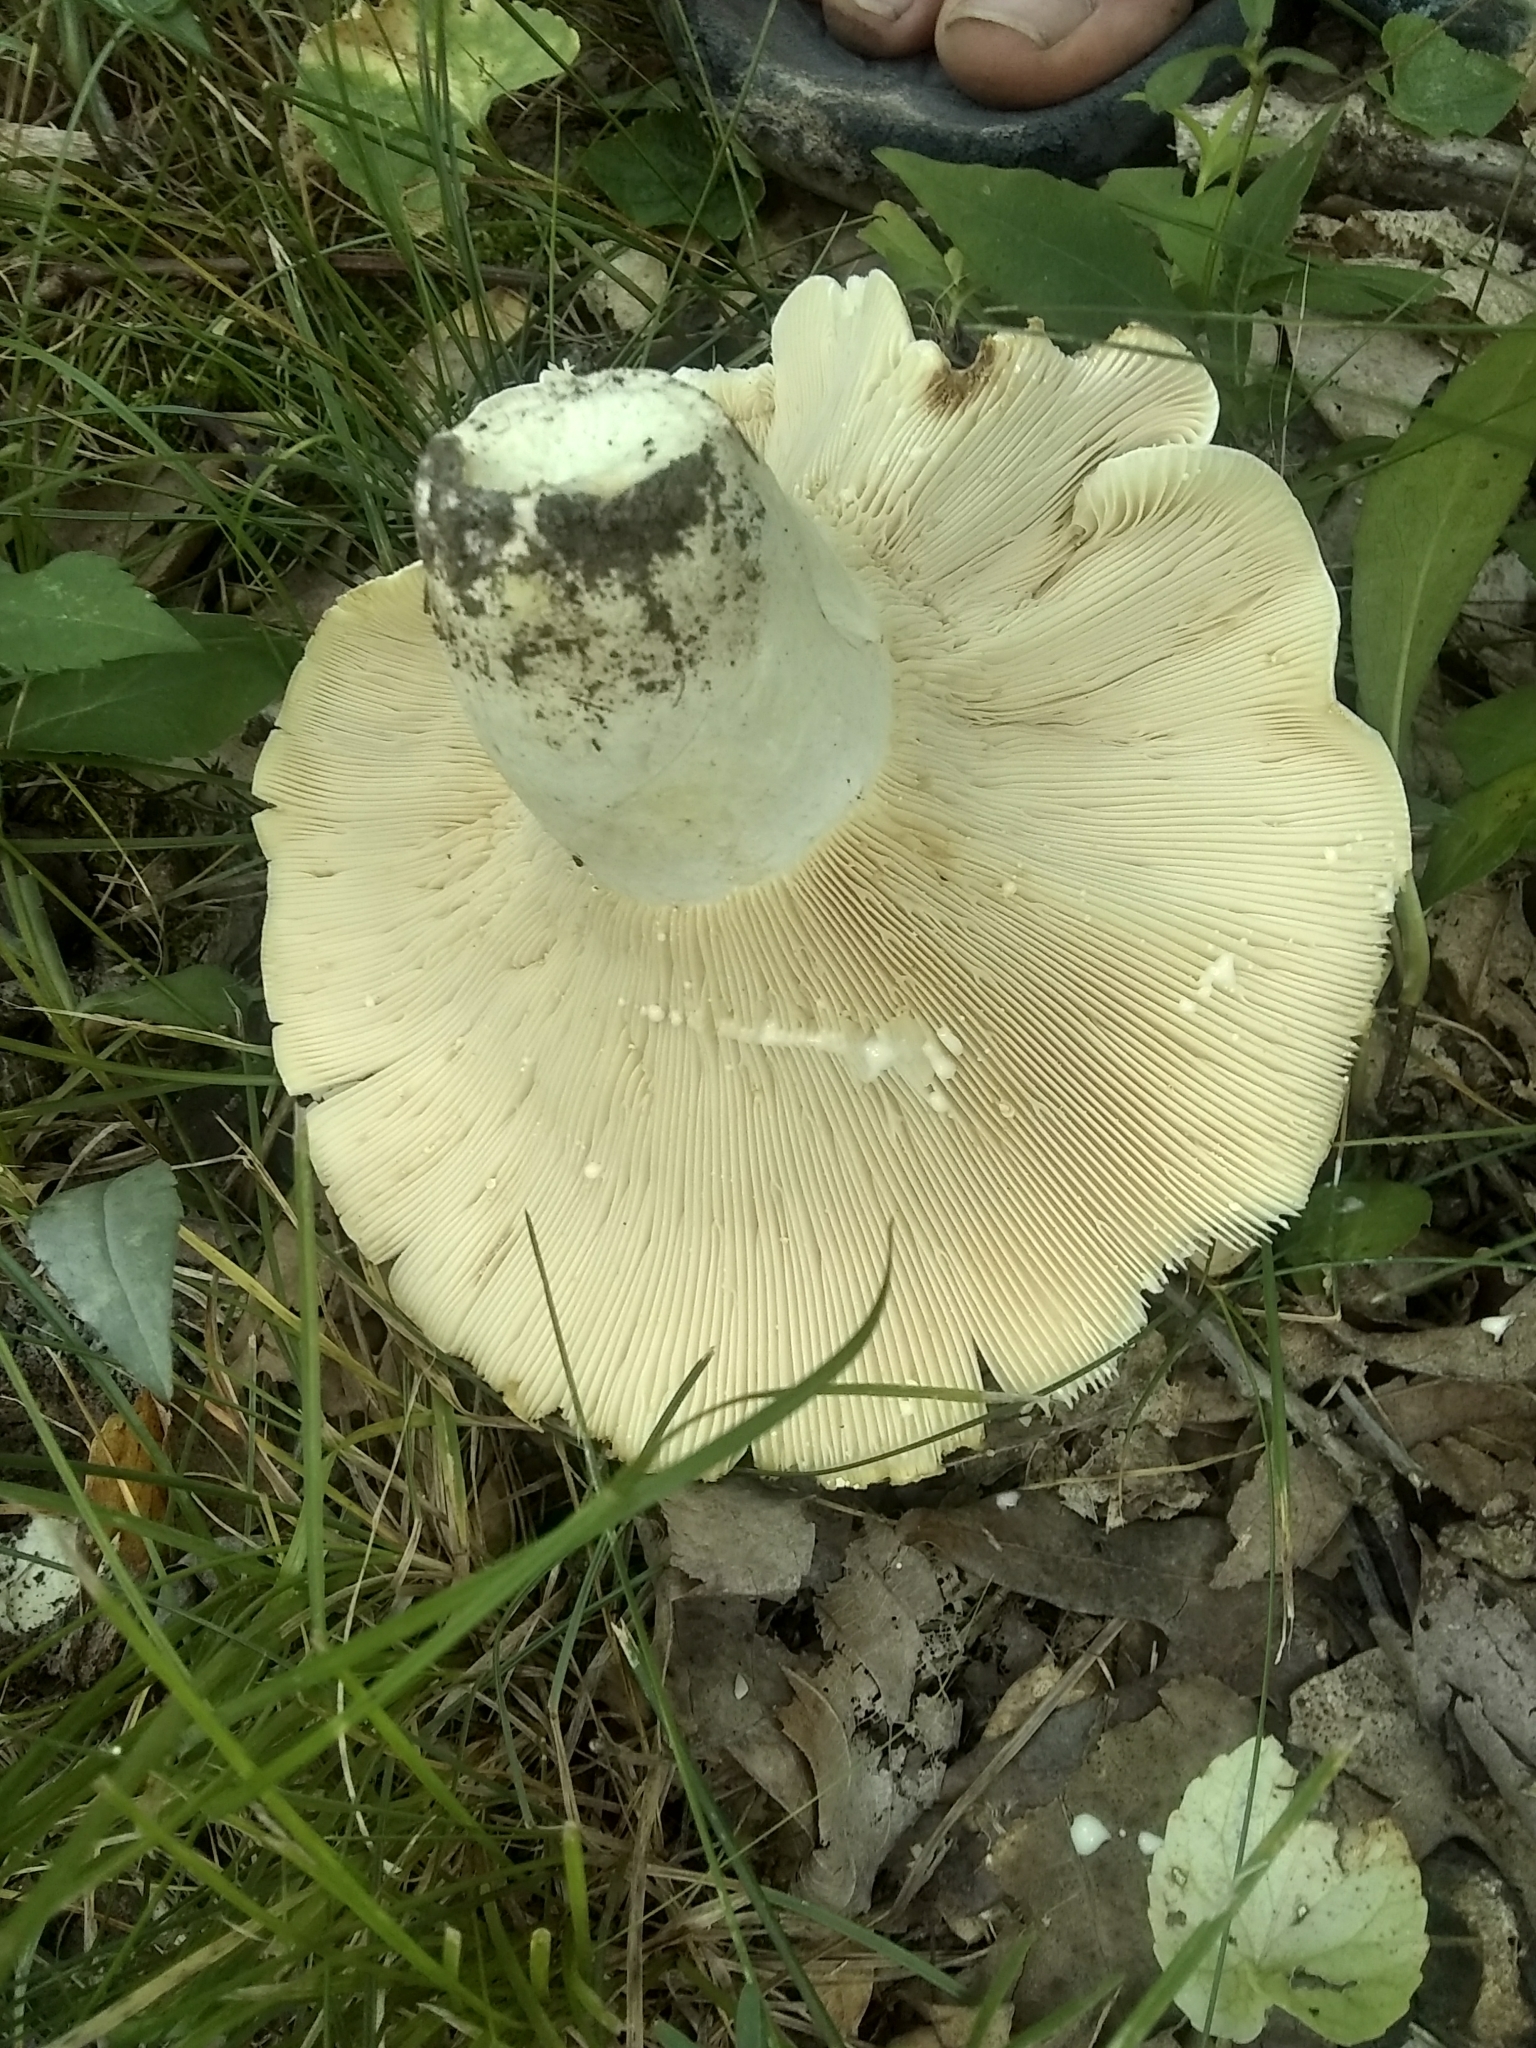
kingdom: Fungi
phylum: Basidiomycota
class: Agaricomycetes
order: Russulales
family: Russulaceae
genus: Lactifluus
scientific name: Lactifluus piperatus
